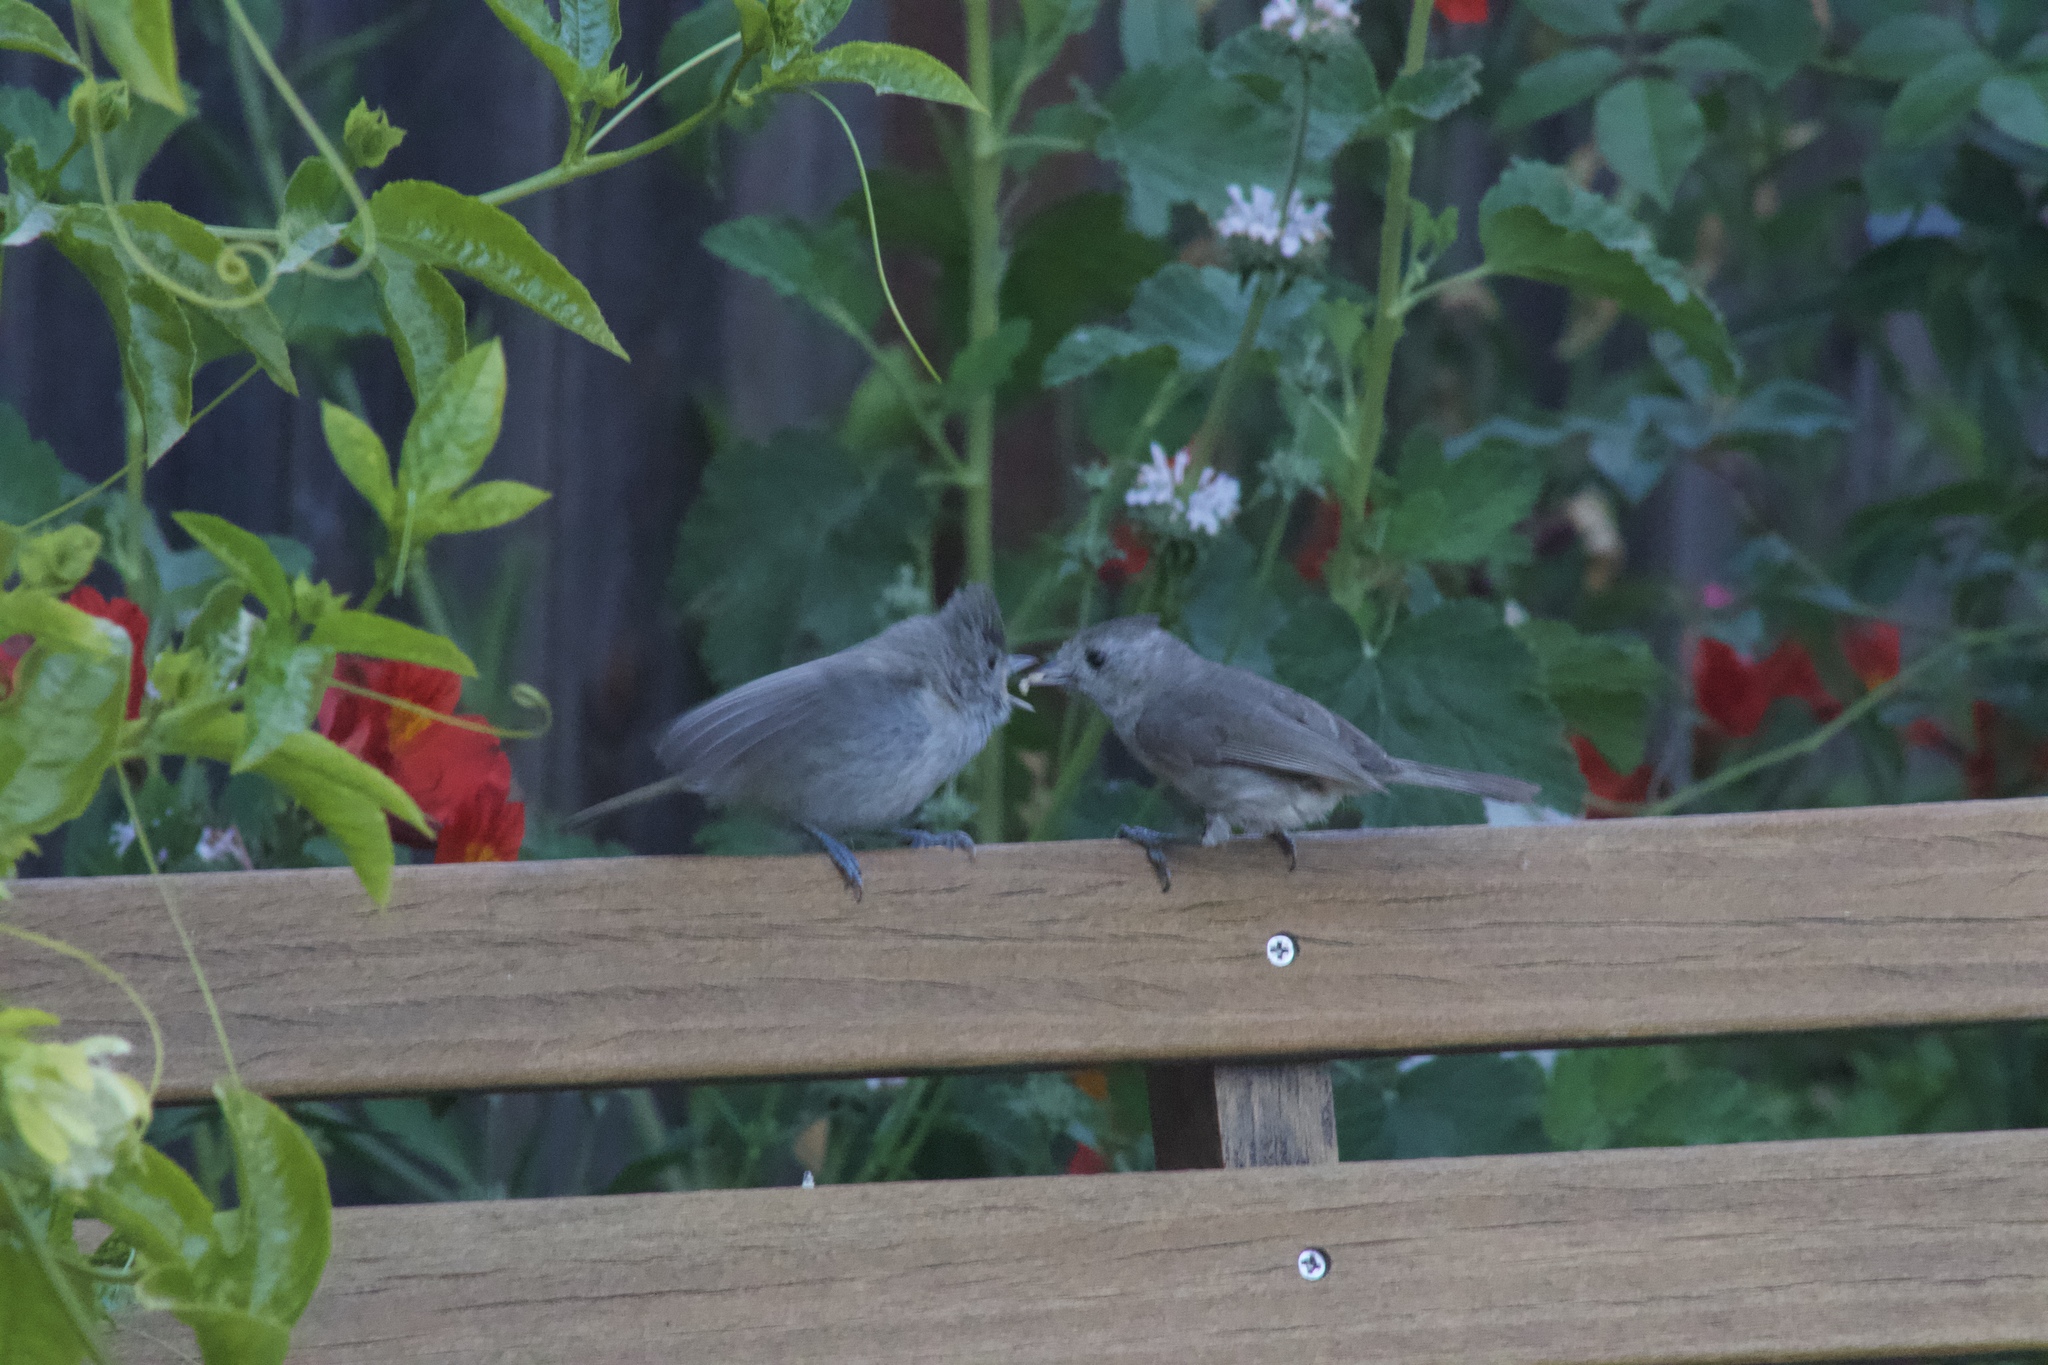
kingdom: Animalia
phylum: Chordata
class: Aves
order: Passeriformes
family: Paridae
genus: Baeolophus
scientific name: Baeolophus inornatus
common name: Oak titmouse
